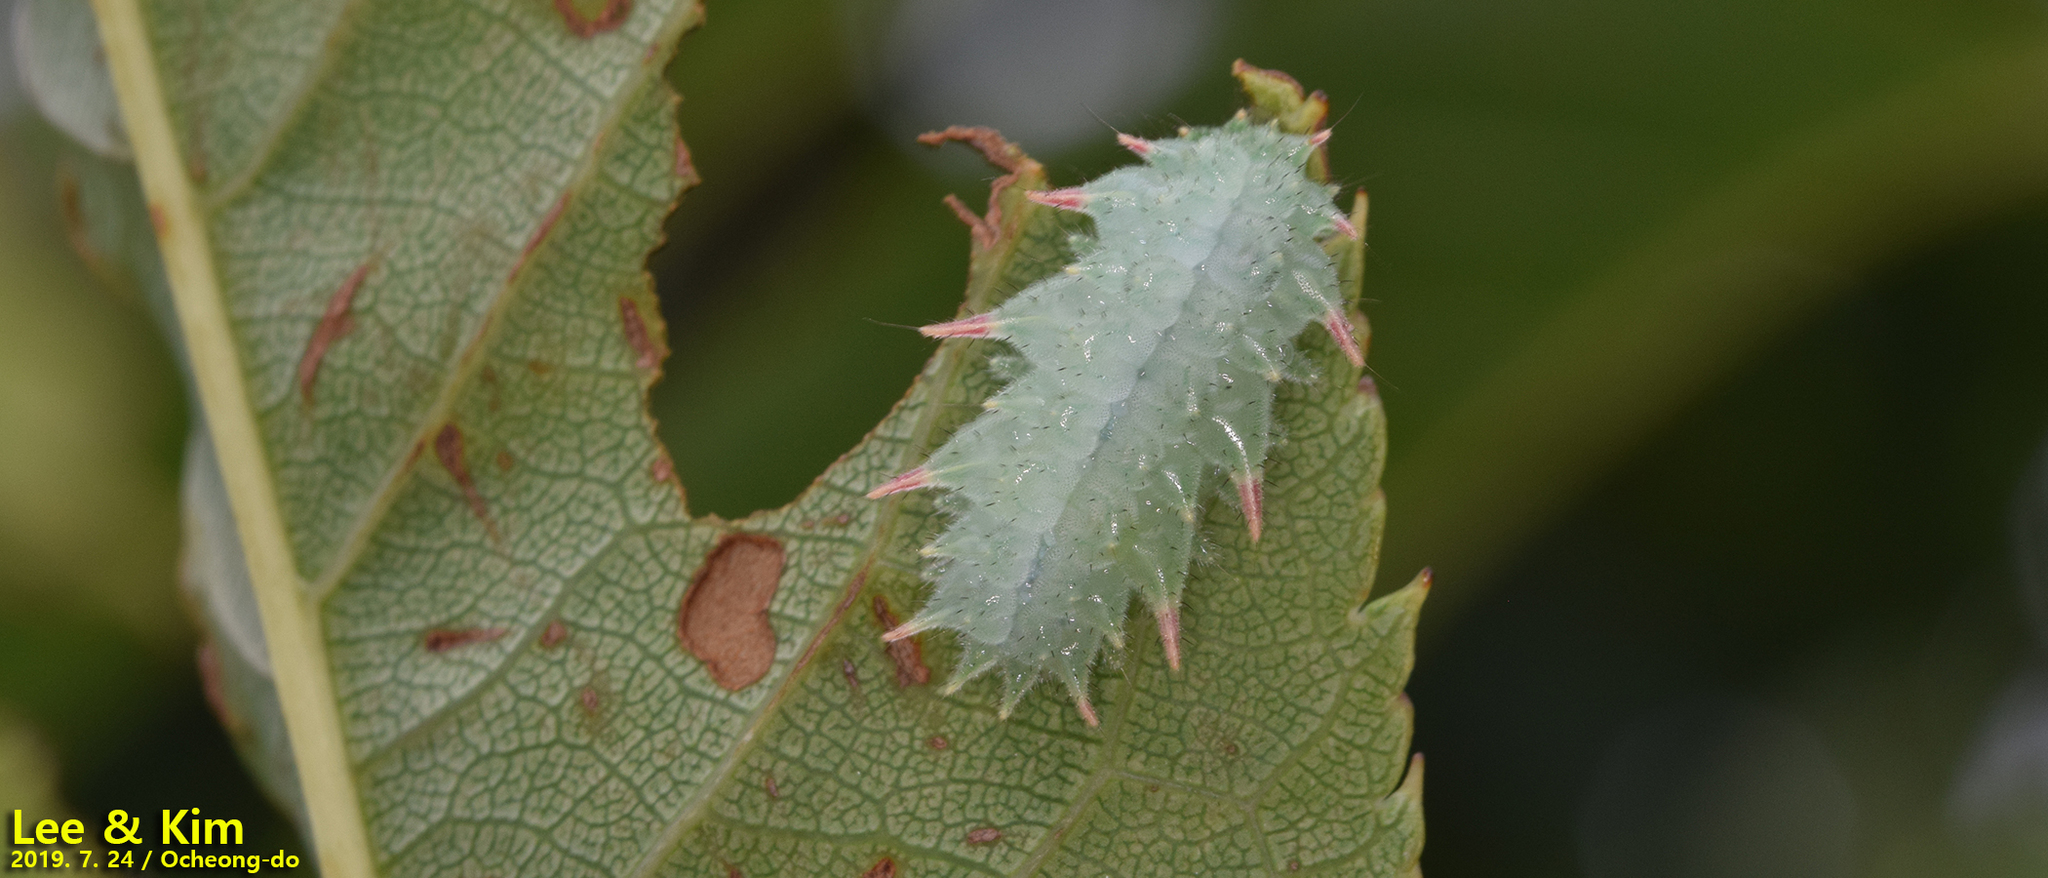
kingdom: Animalia
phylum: Arthropoda
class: Insecta
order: Lepidoptera
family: Limacodidae
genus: Phrixolepia
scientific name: Phrixolepia sericea
